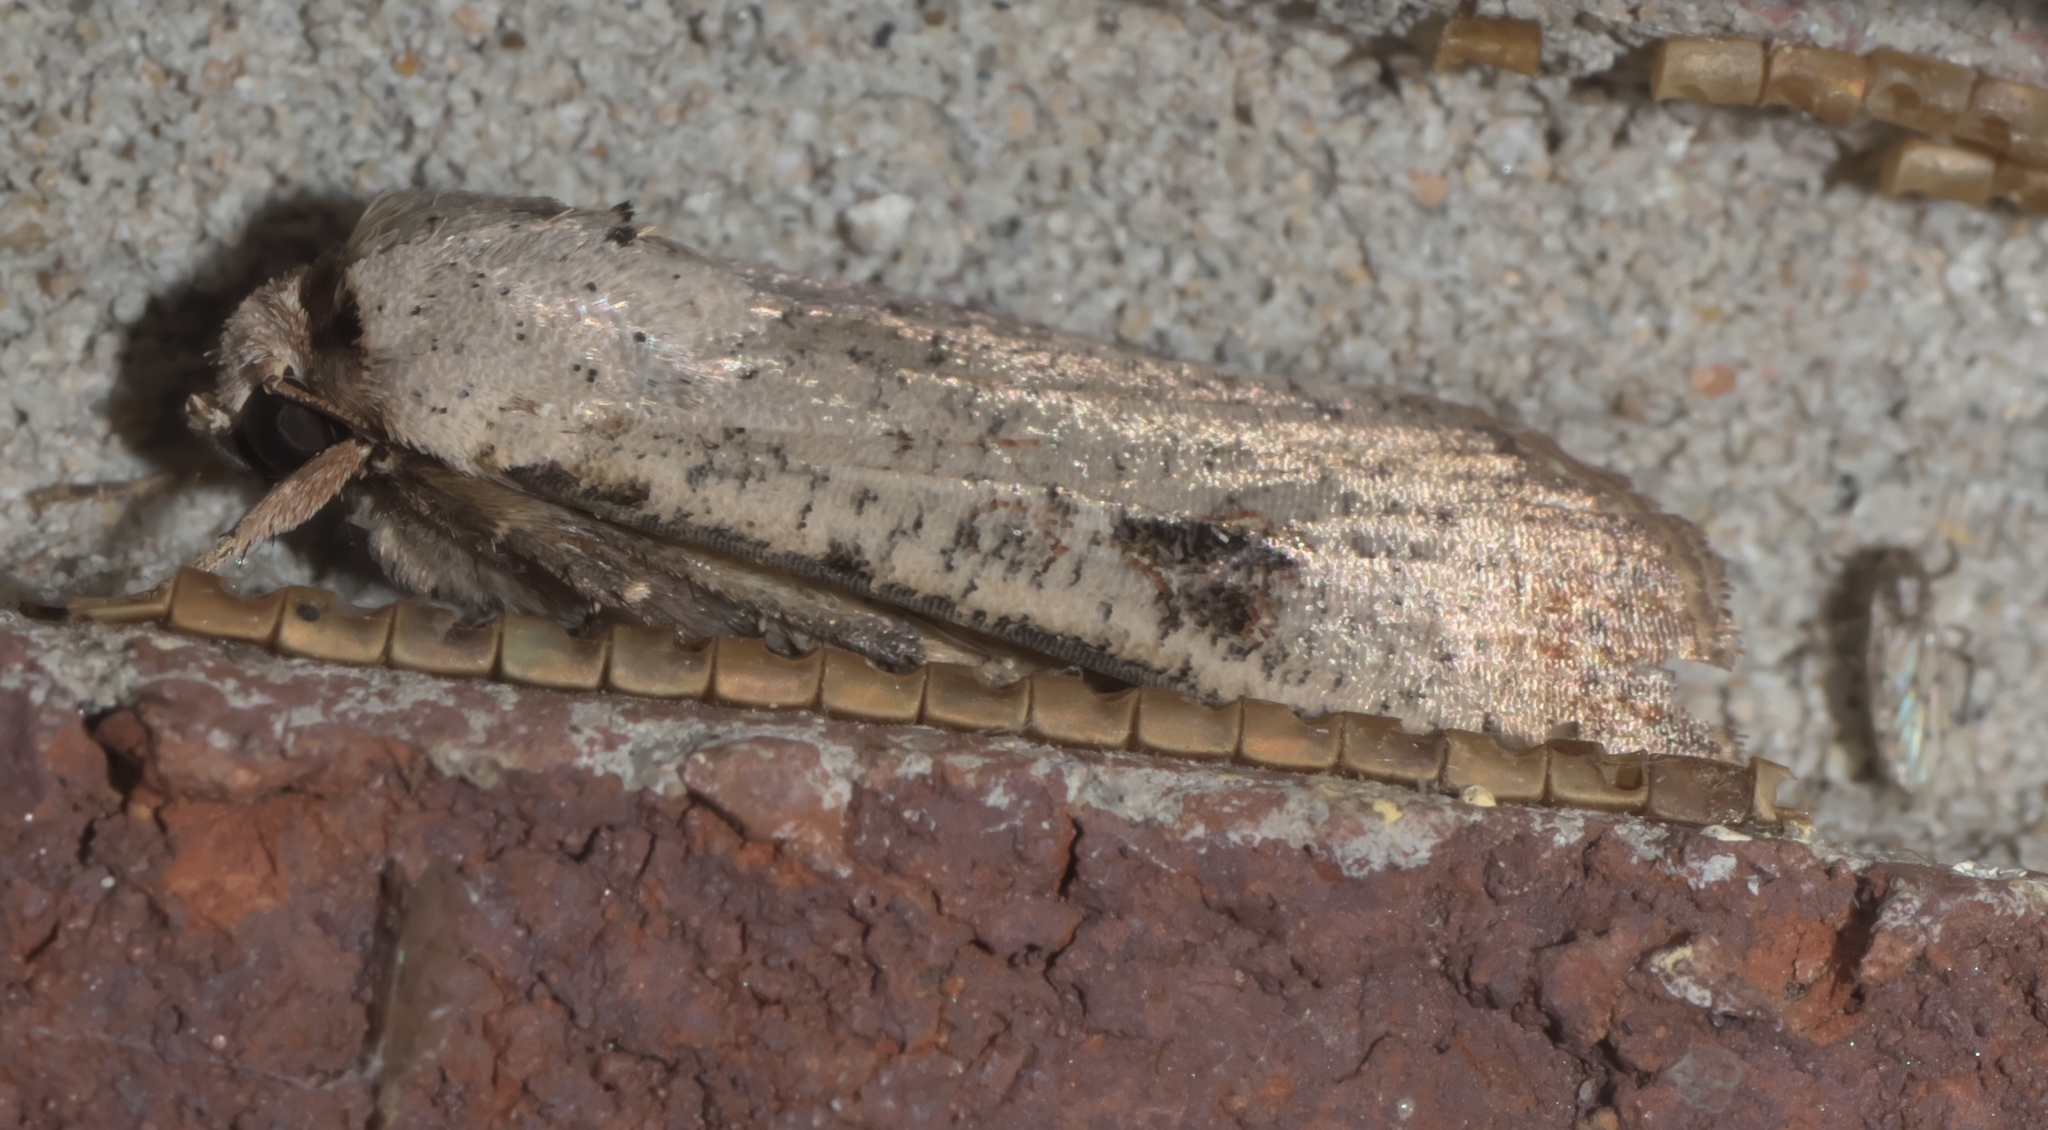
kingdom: Animalia
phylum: Arthropoda
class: Insecta
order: Lepidoptera
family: Noctuidae
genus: Anicla
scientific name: Anicla infecta
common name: Green cutworm
